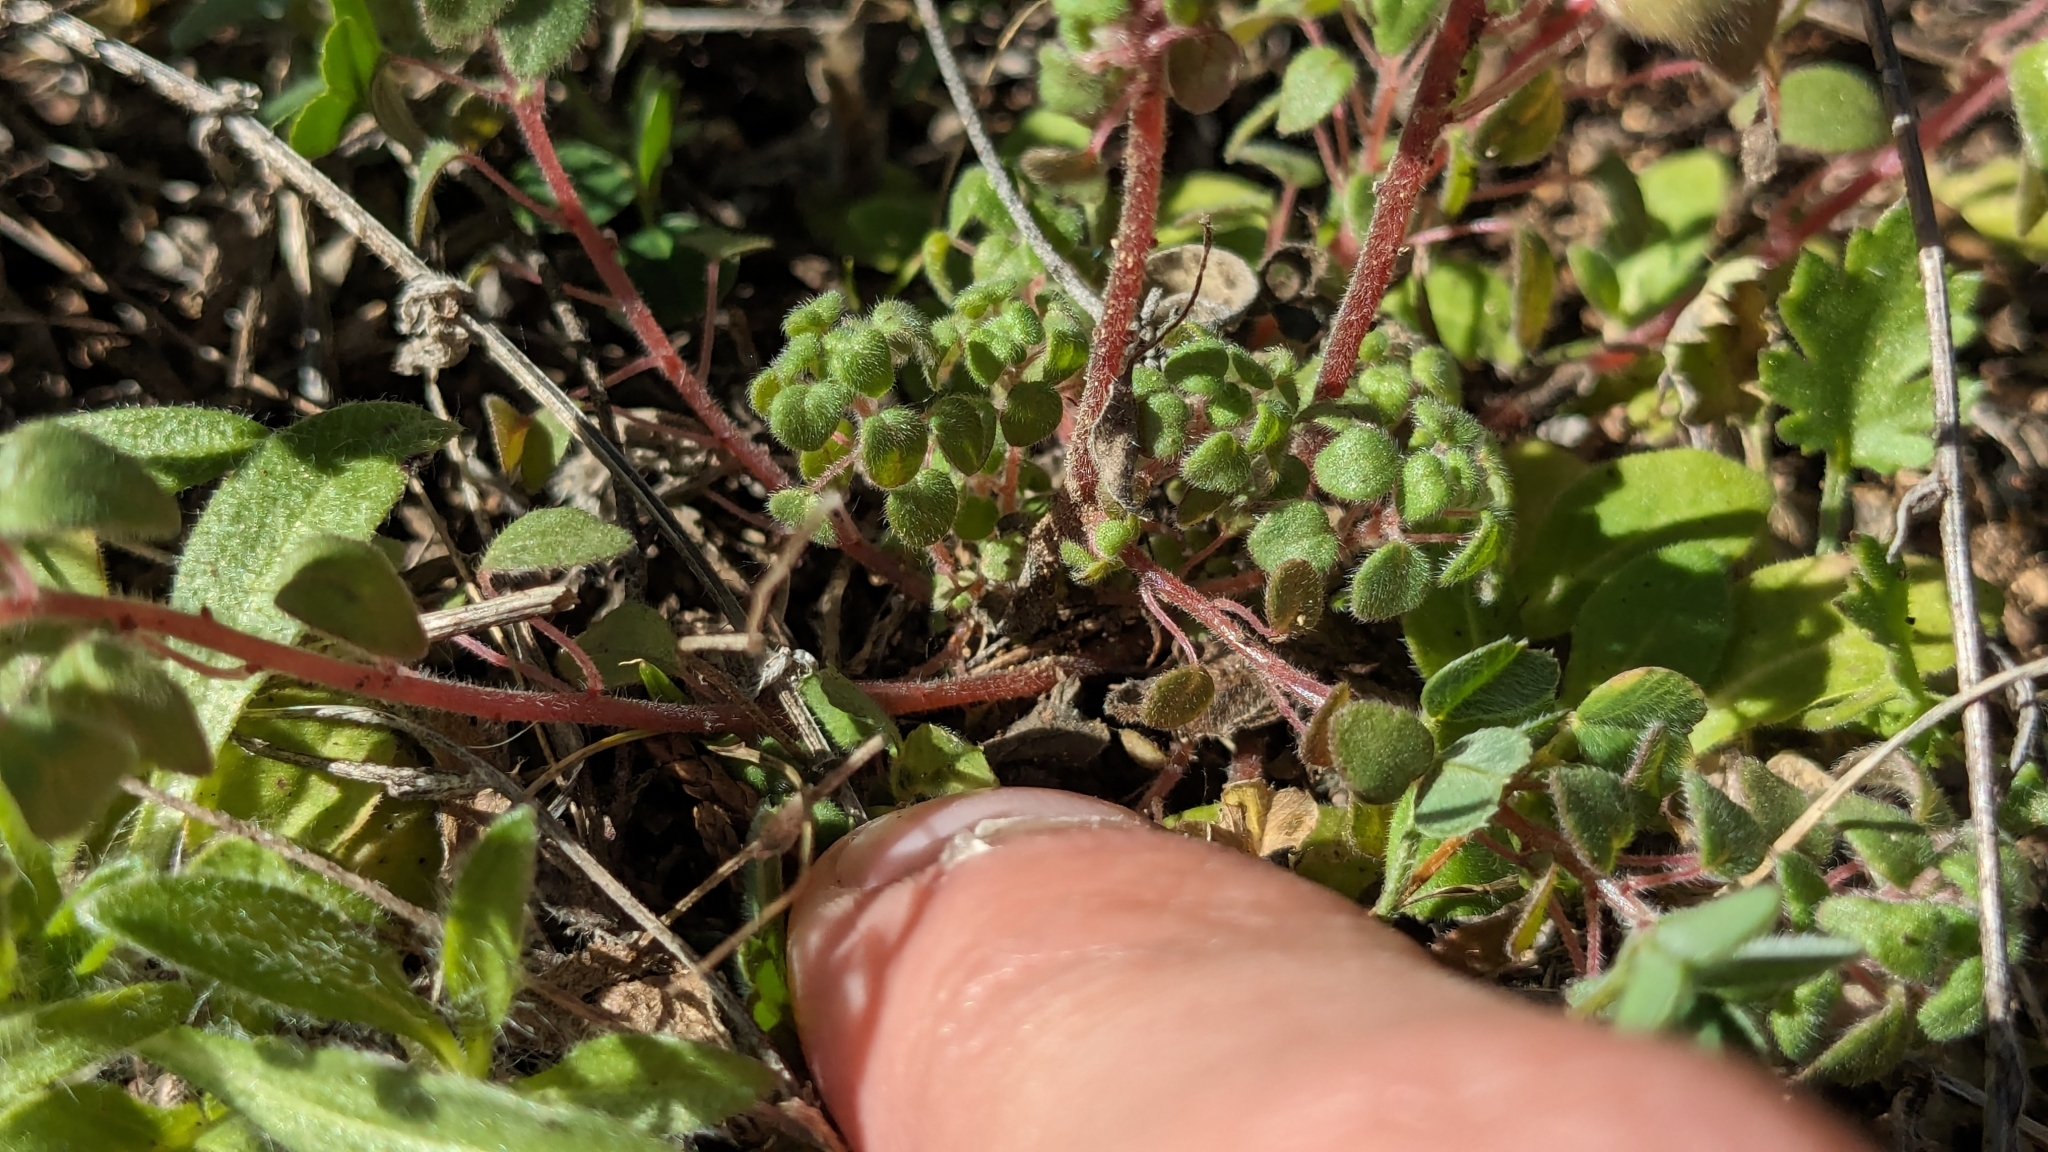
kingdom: Plantae
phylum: Tracheophyta
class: Magnoliopsida
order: Rosales
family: Urticaceae
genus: Parietaria
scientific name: Parietaria pensylvanica
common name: Pennsylvania pellitory
